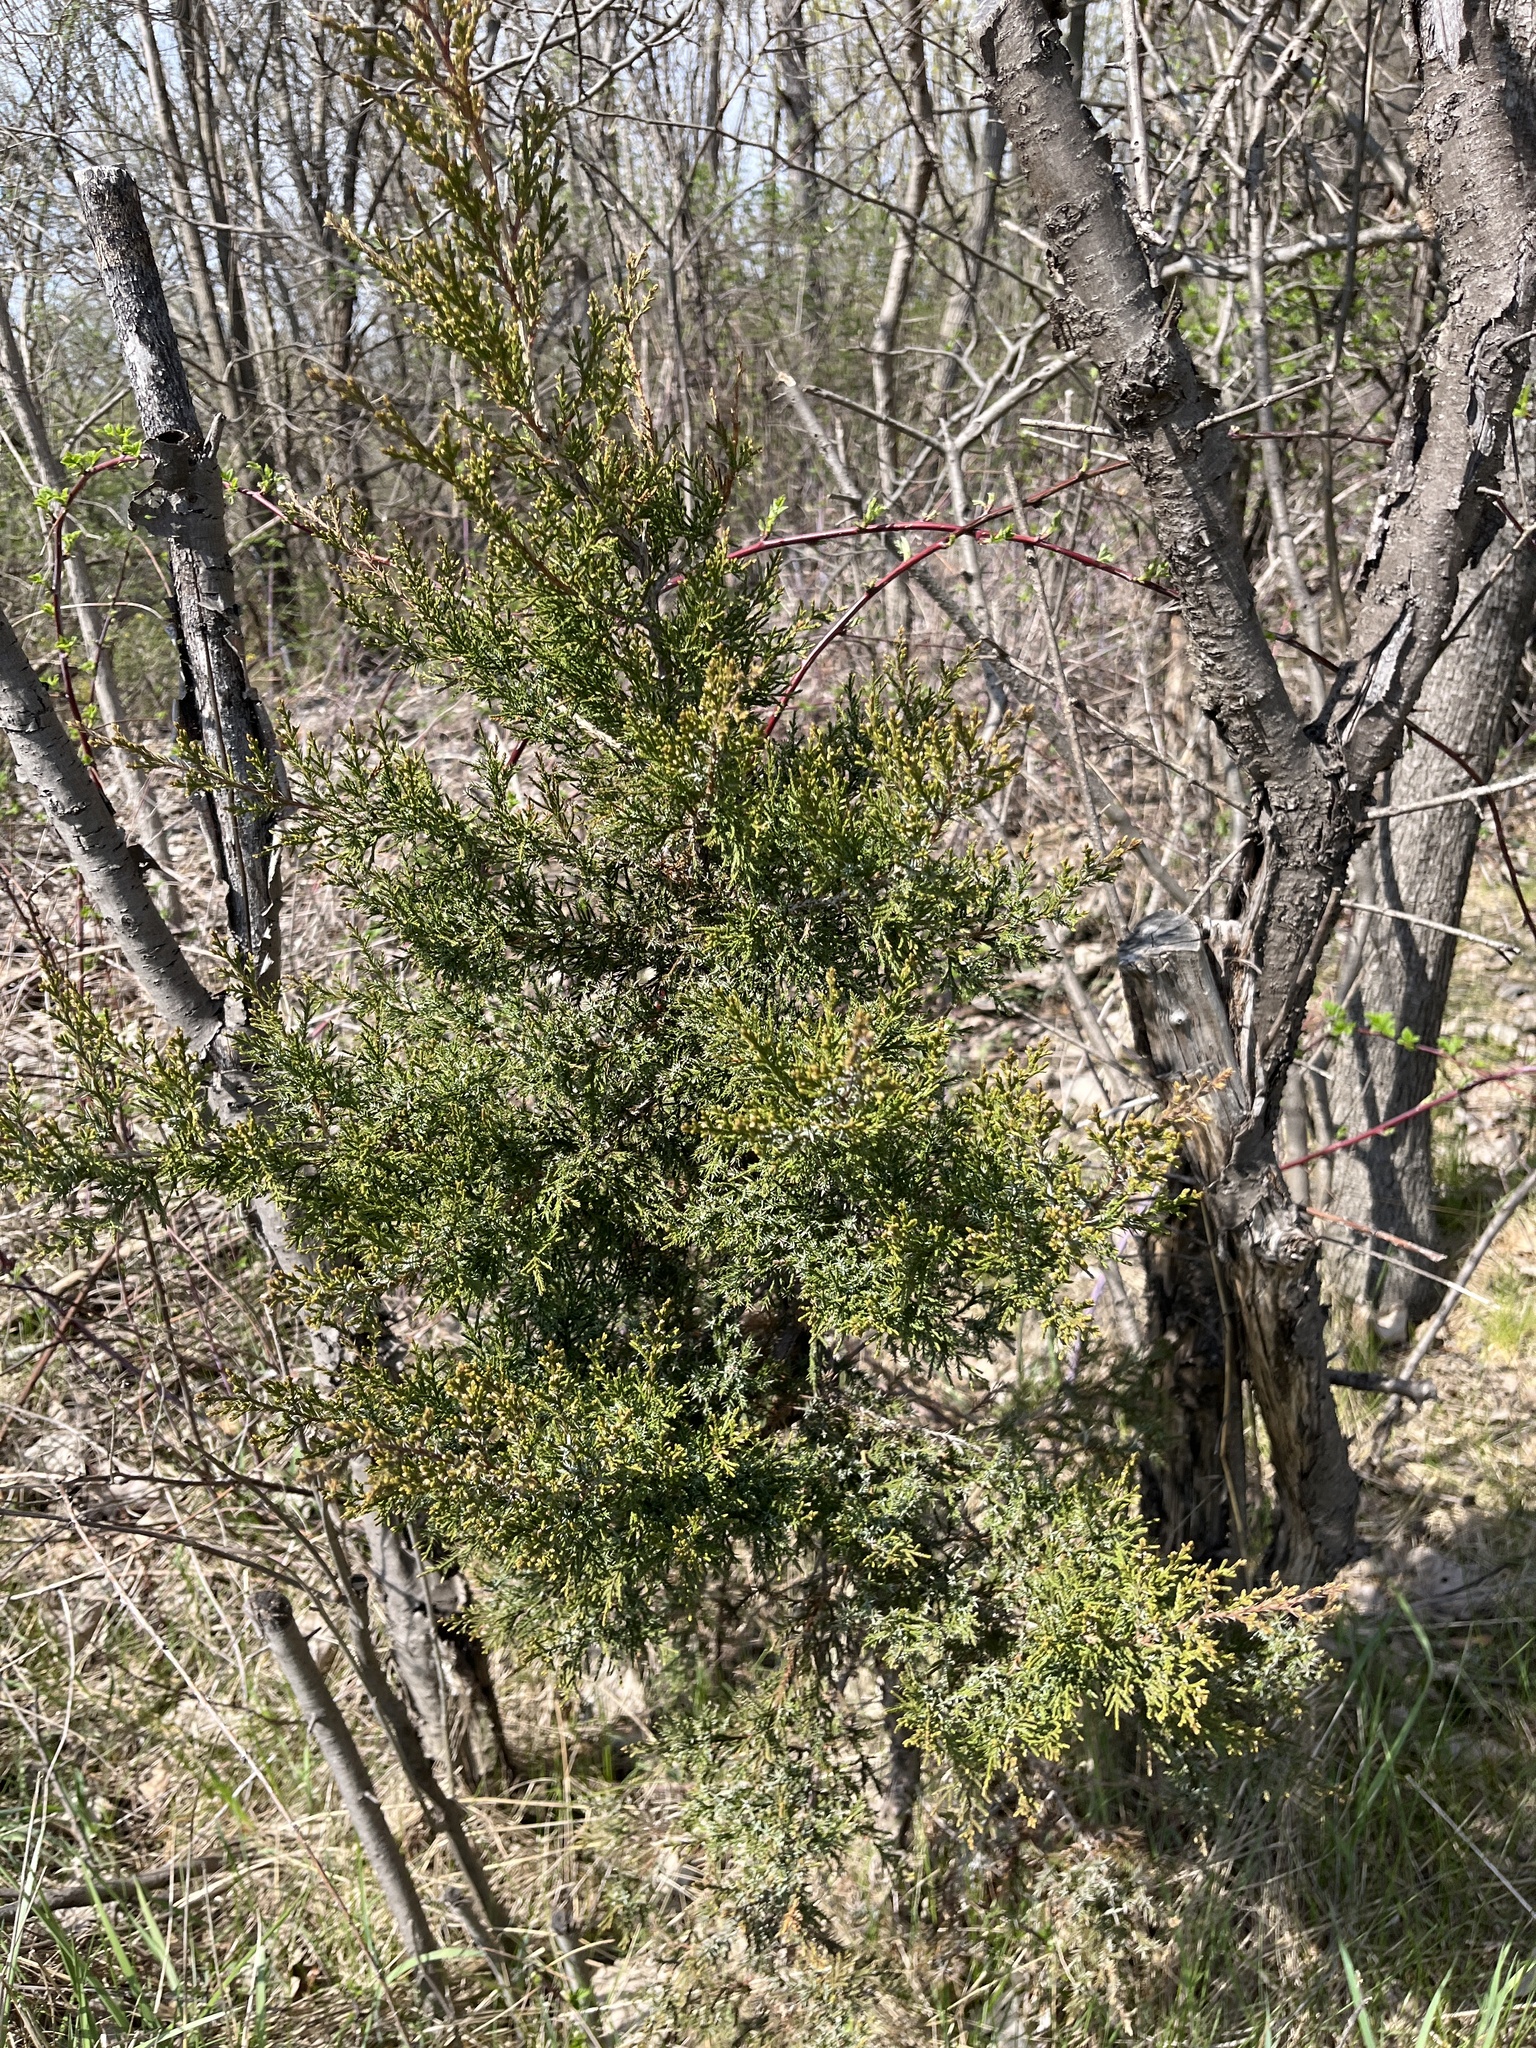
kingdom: Plantae
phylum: Tracheophyta
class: Pinopsida
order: Pinales
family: Cupressaceae
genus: Juniperus
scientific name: Juniperus virginiana
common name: Red juniper
